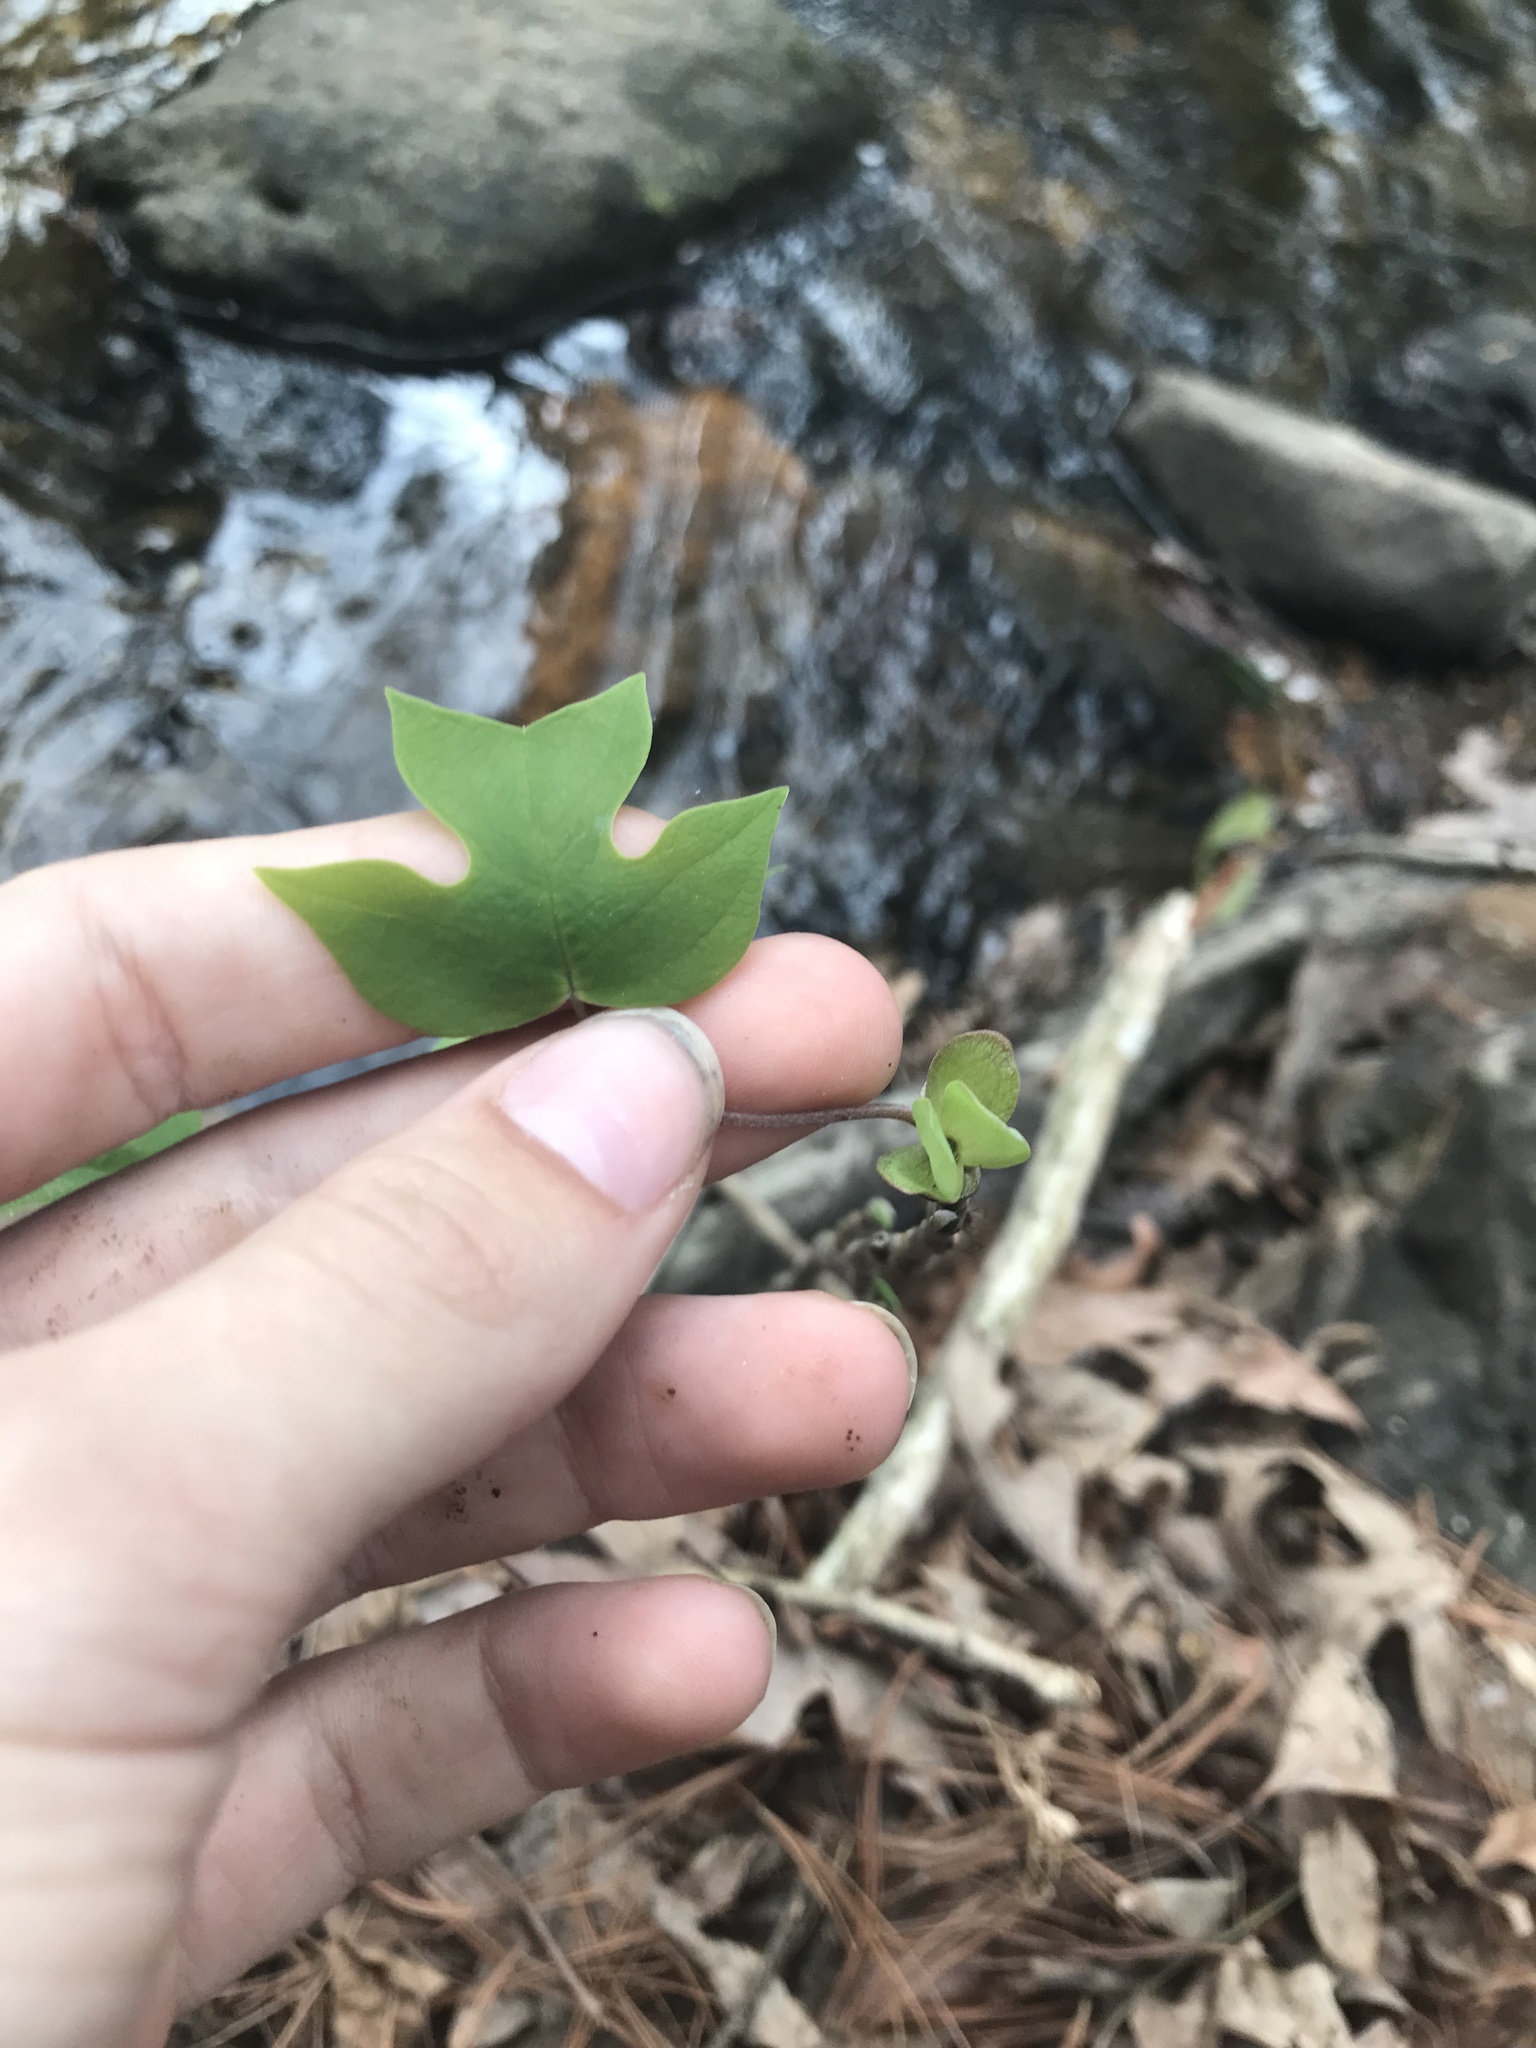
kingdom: Plantae
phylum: Tracheophyta
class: Magnoliopsida
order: Magnoliales
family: Magnoliaceae
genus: Liriodendron
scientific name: Liriodendron tulipifera
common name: Tulip tree
